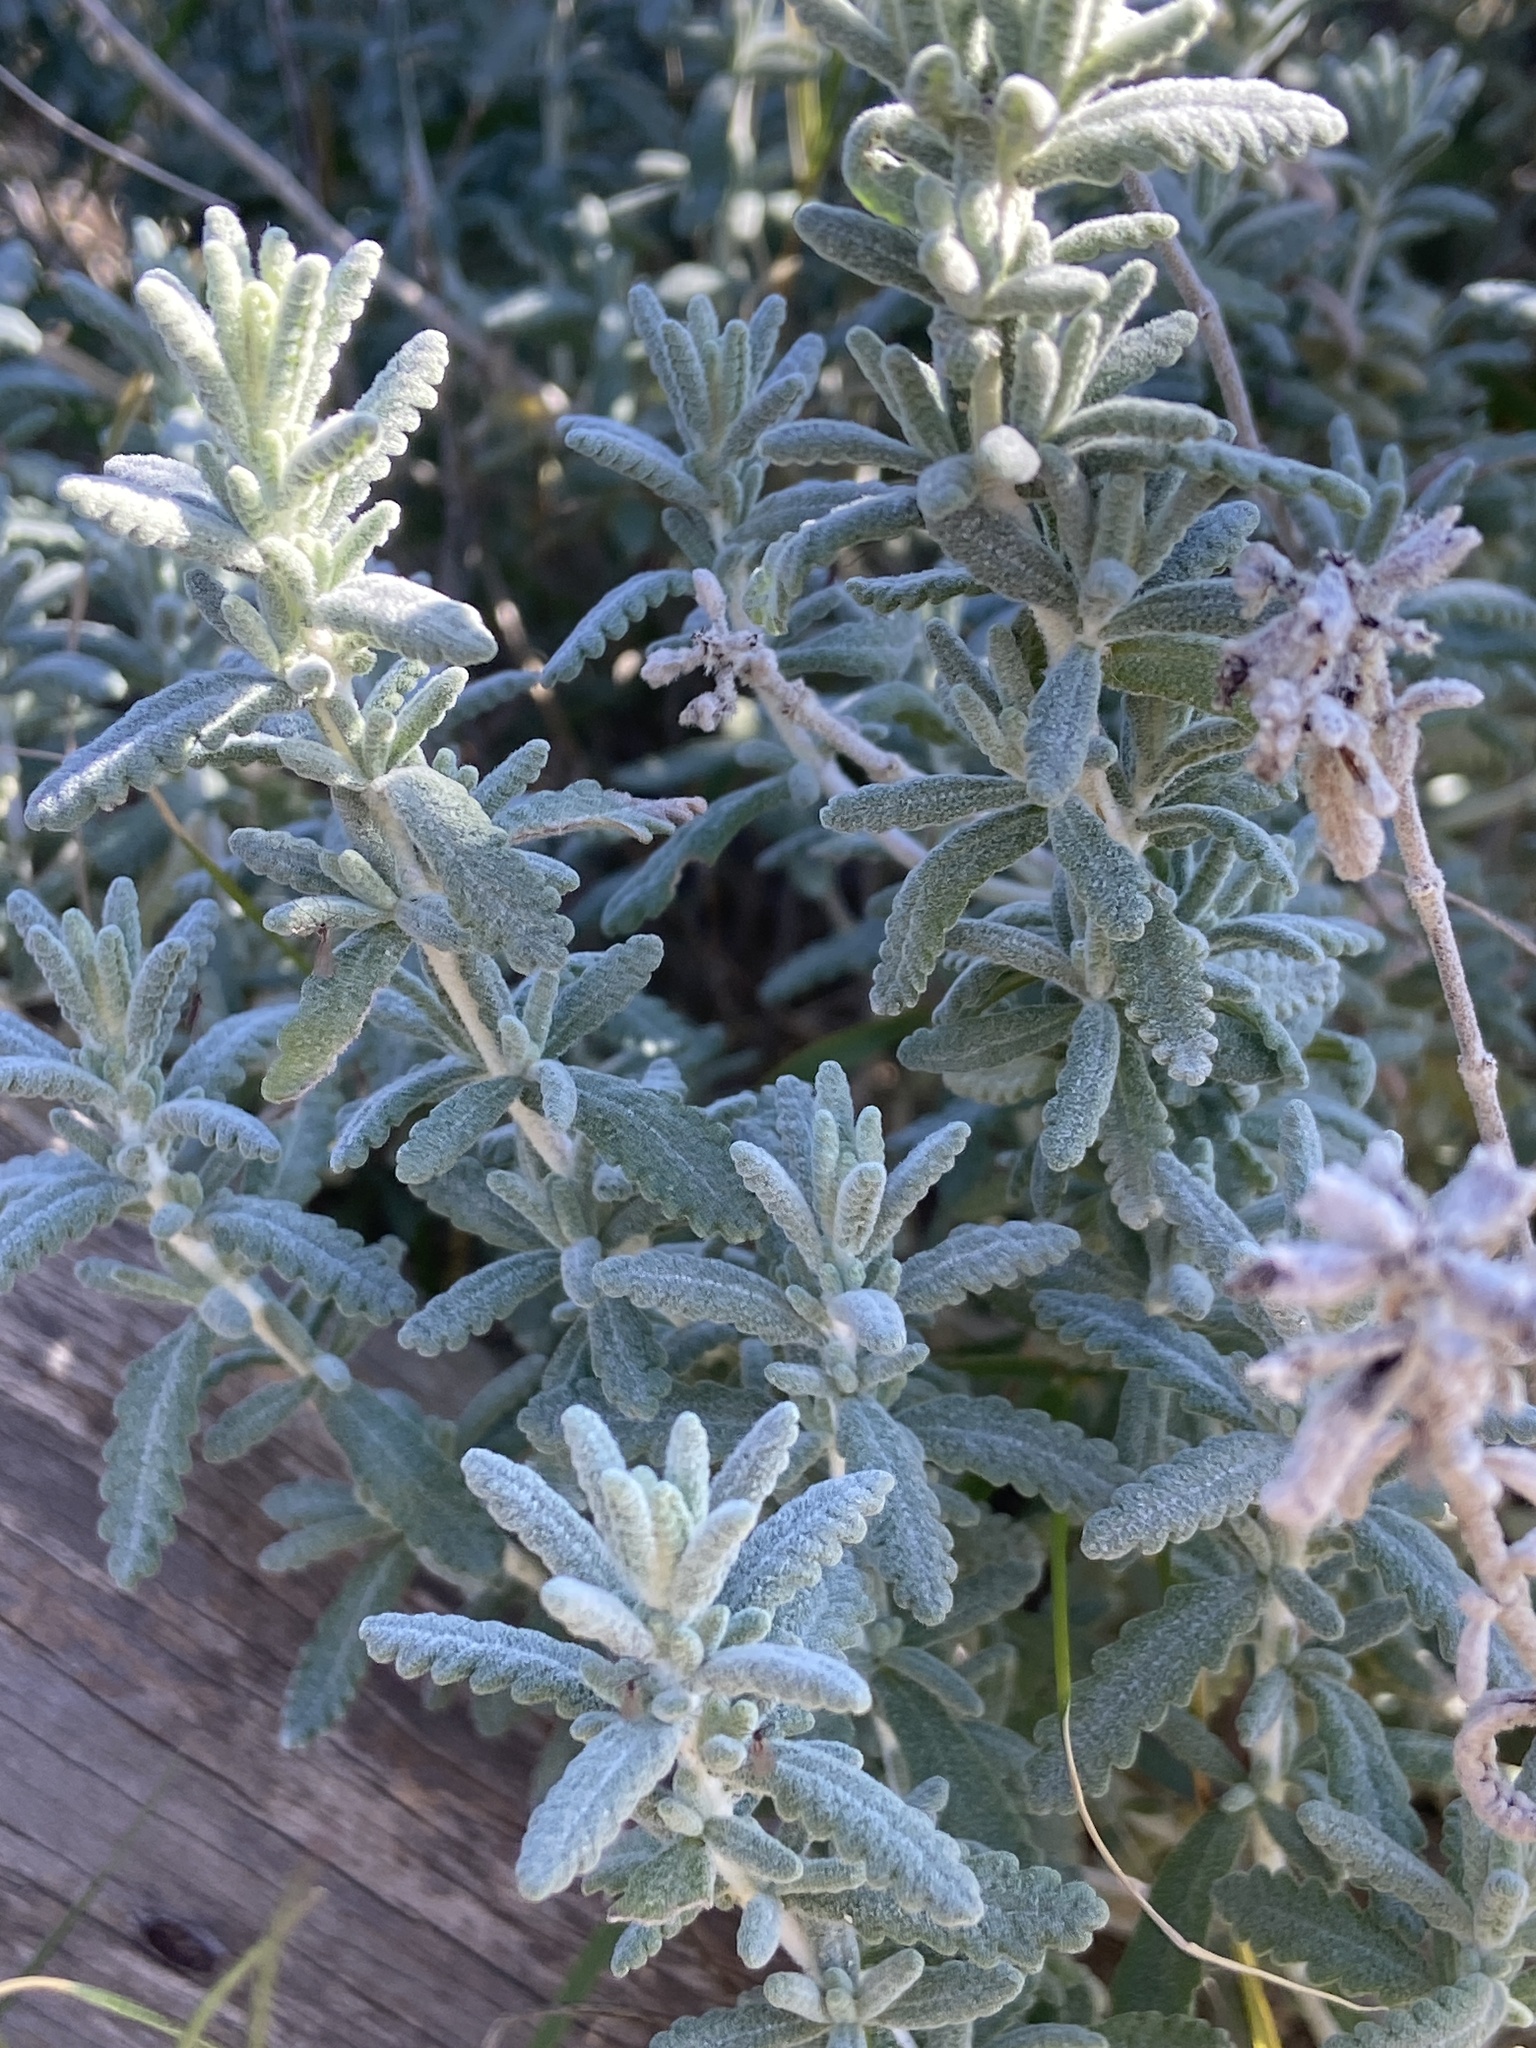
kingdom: Plantae
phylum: Tracheophyta
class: Magnoliopsida
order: Lamiales
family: Lamiaceae
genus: Teucrium
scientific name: Teucrium dunense
